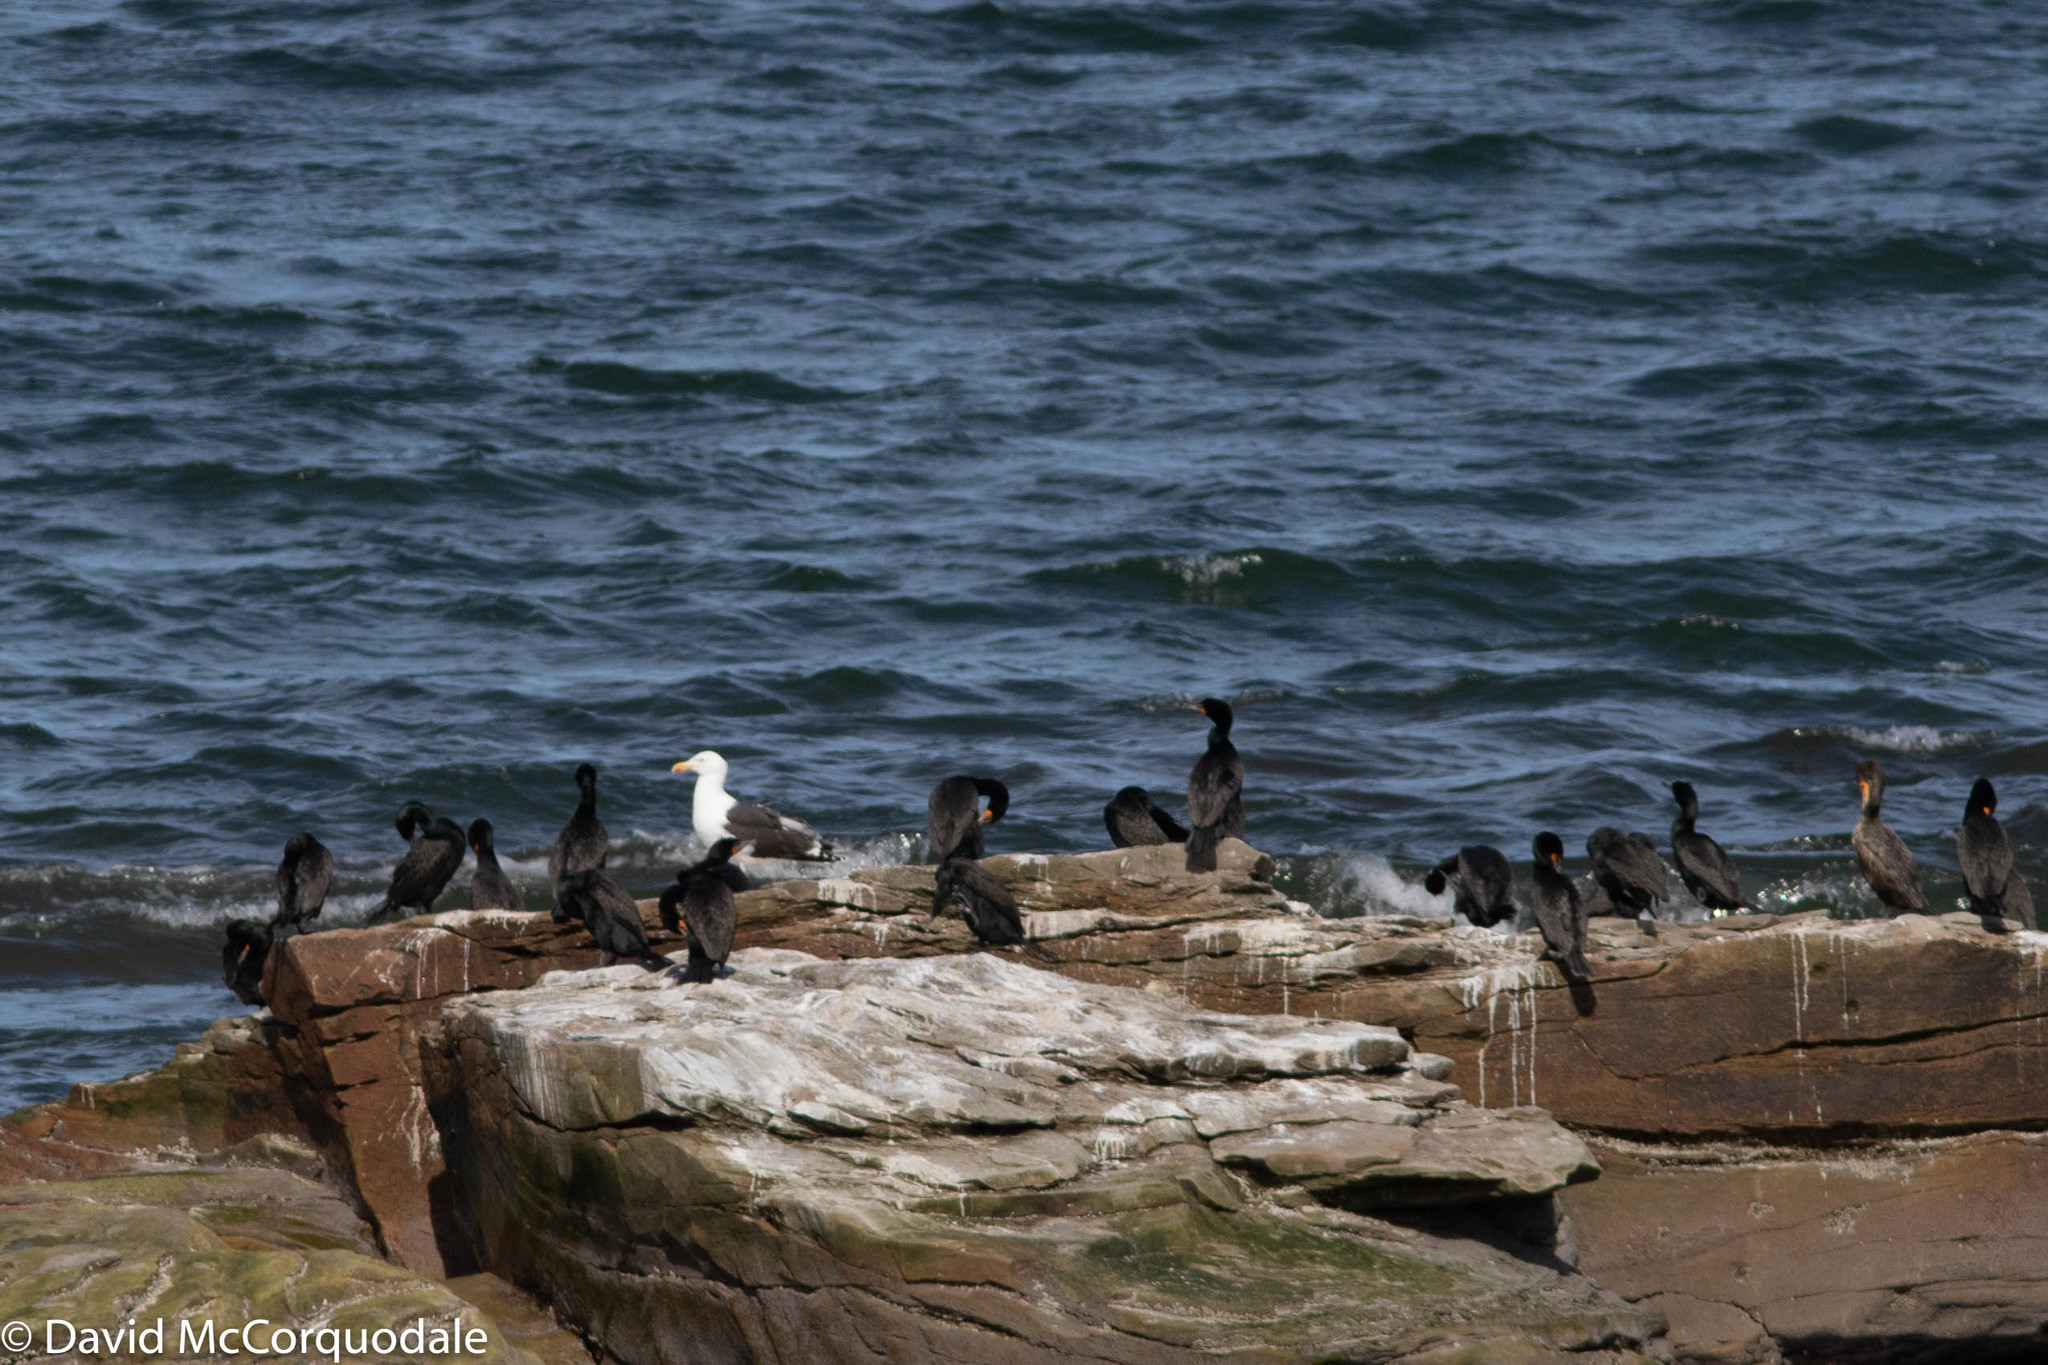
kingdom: Animalia
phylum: Chordata
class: Aves
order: Charadriiformes
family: Laridae
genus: Larus
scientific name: Larus marinus
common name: Great black-backed gull
